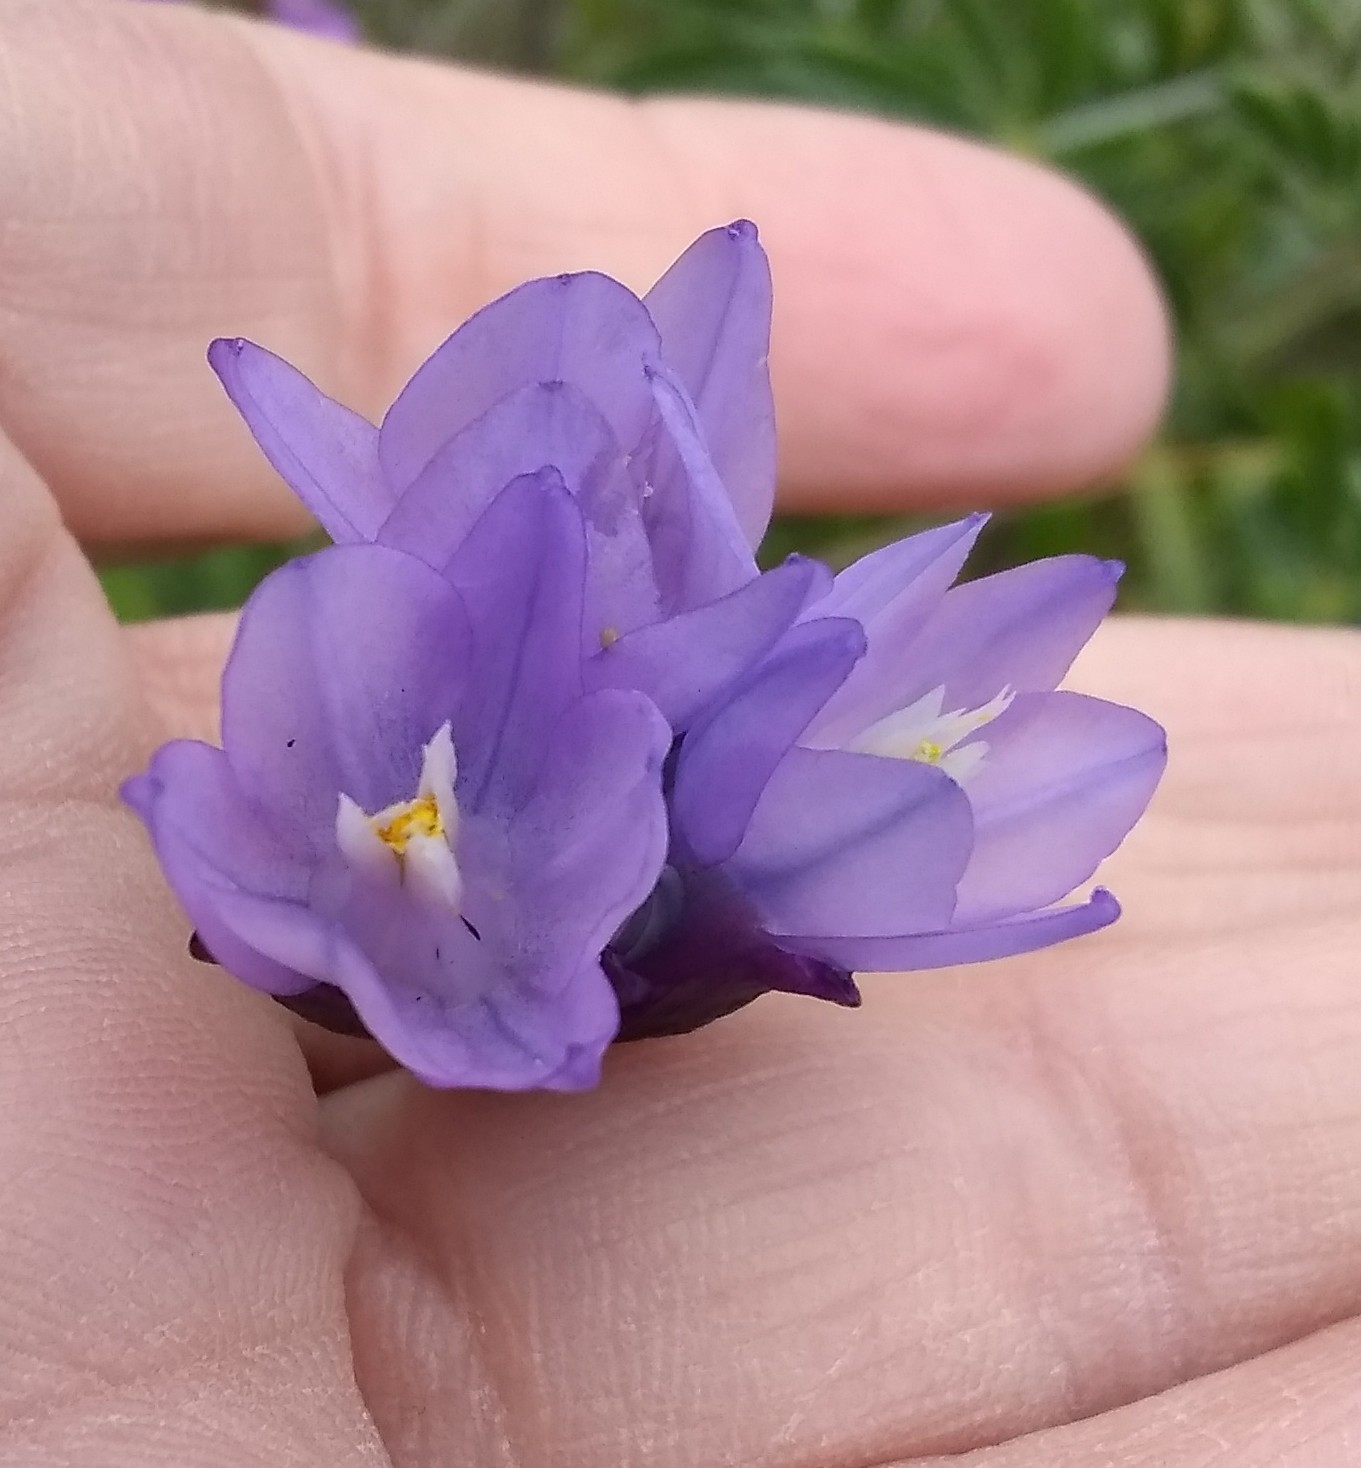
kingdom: Plantae
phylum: Tracheophyta
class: Liliopsida
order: Asparagales
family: Asparagaceae
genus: Dipterostemon
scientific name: Dipterostemon capitatus
